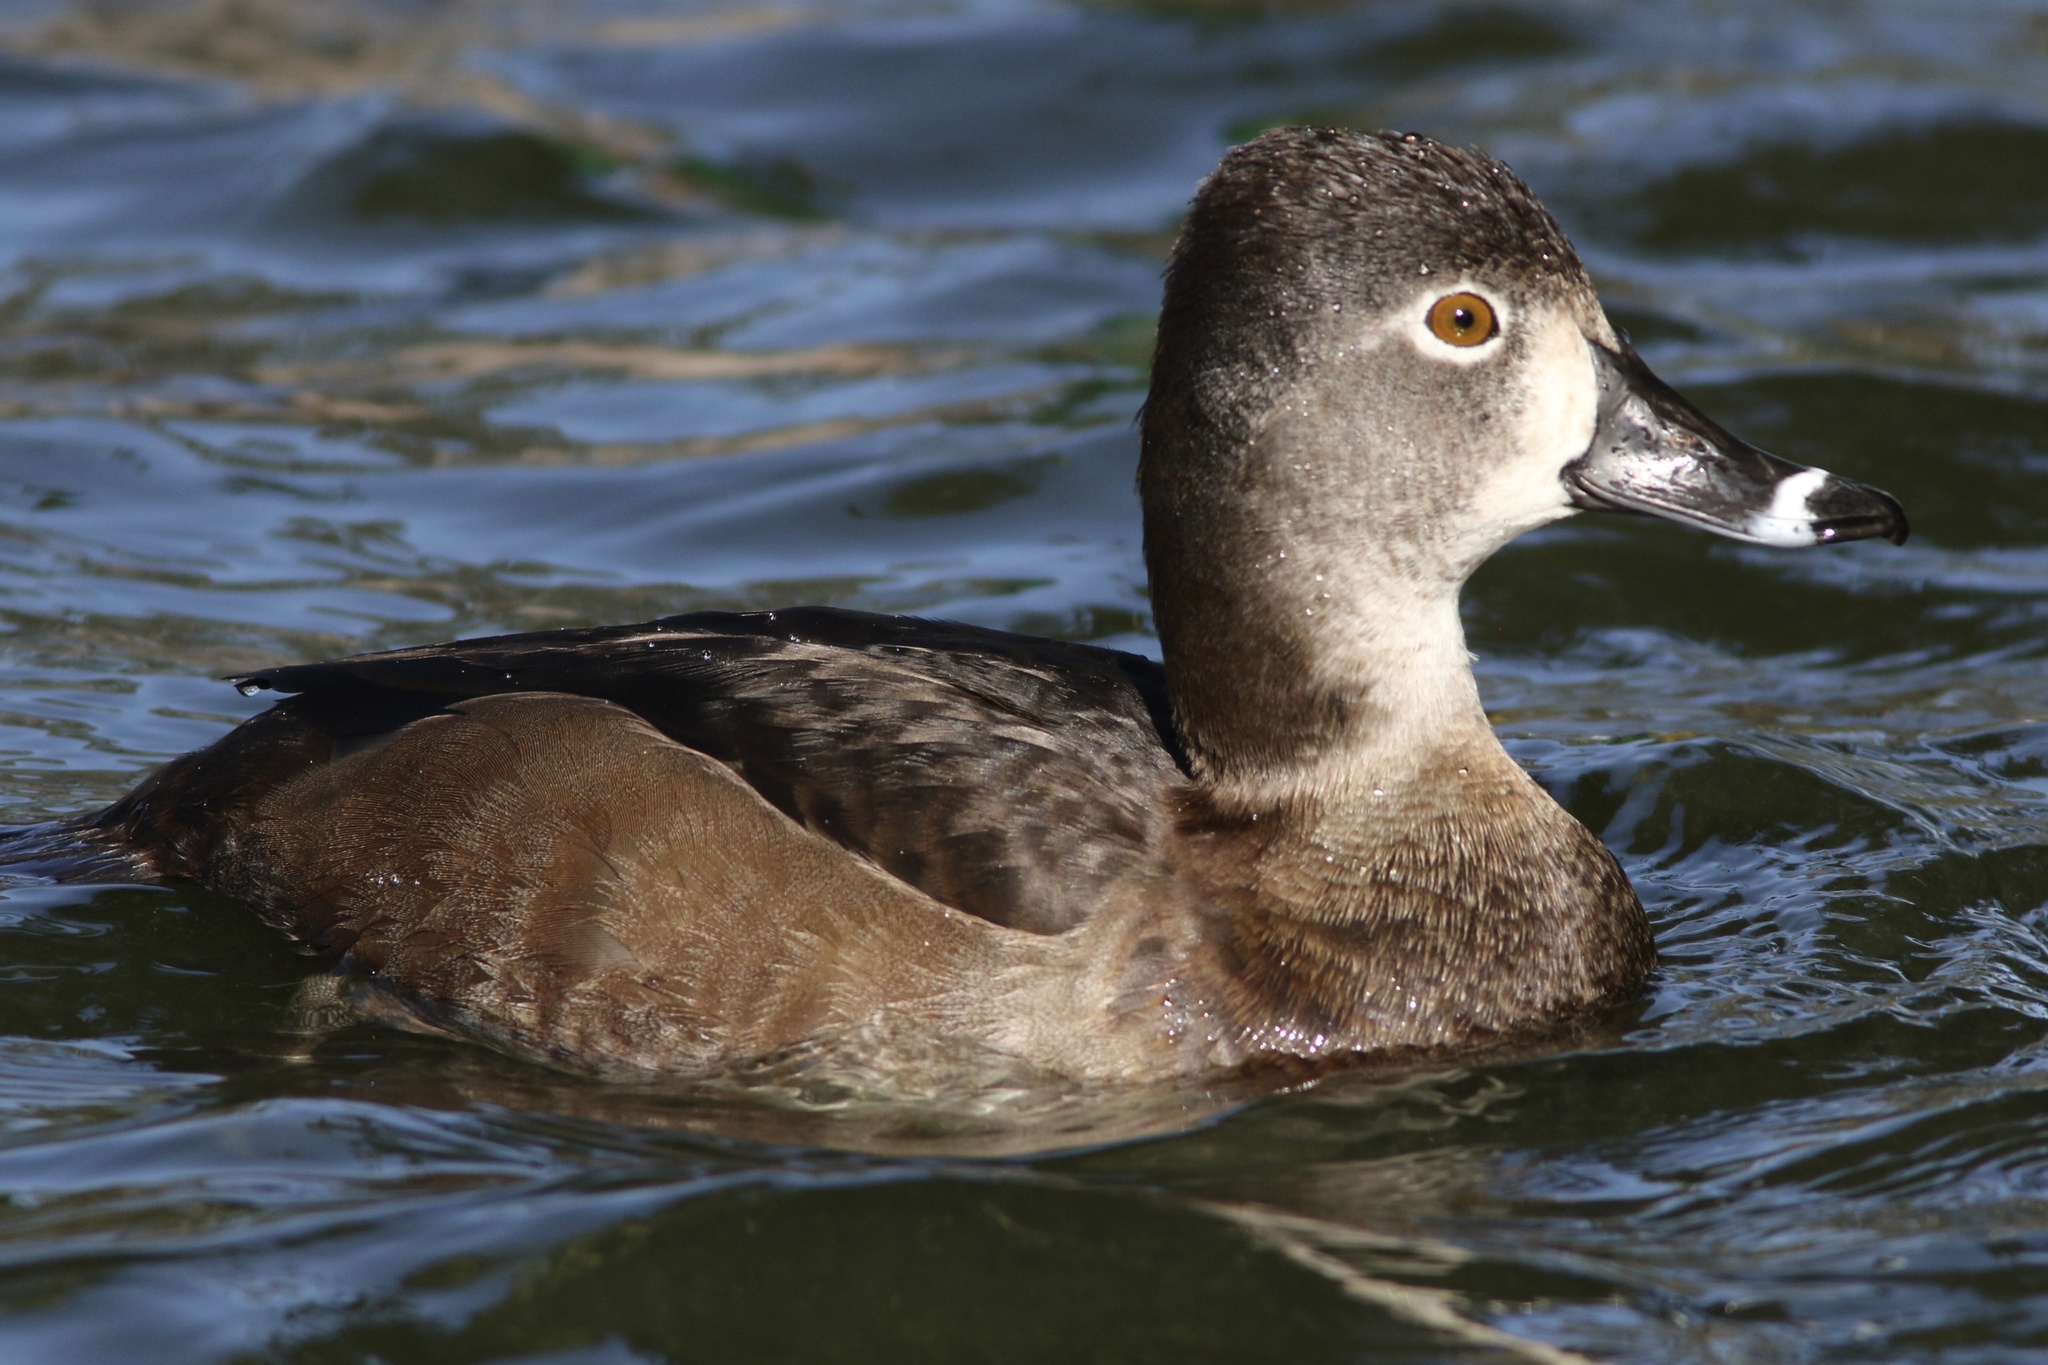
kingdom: Animalia
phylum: Chordata
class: Aves
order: Anseriformes
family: Anatidae
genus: Aythya
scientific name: Aythya collaris
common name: Ring-necked duck
